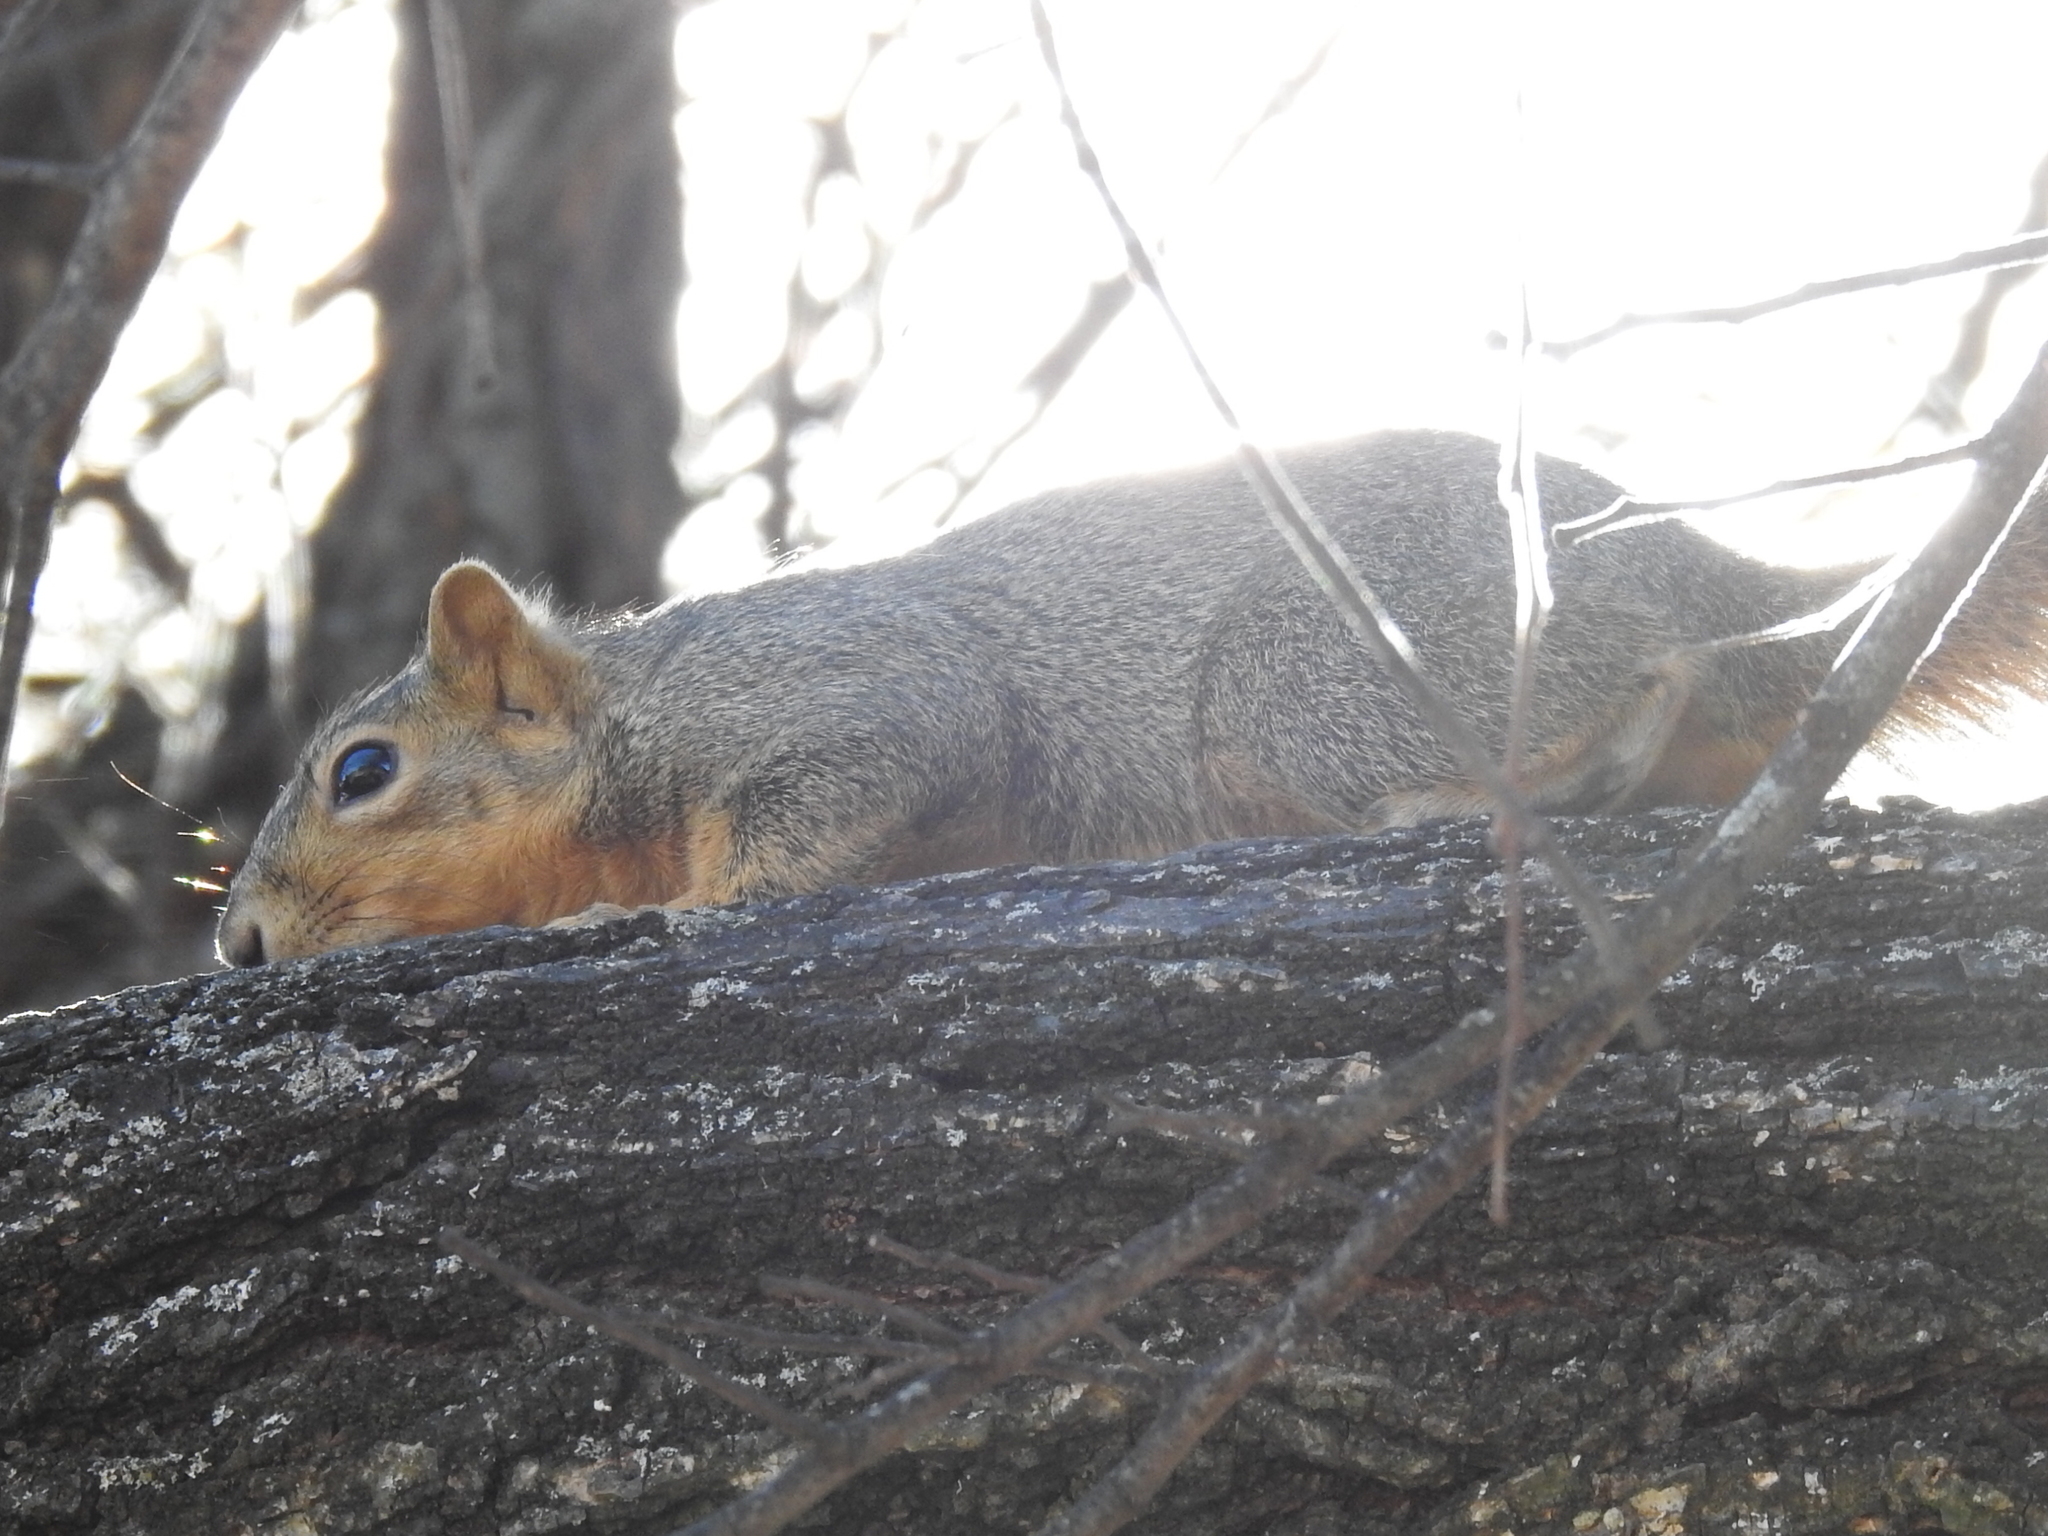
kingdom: Animalia
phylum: Chordata
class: Mammalia
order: Rodentia
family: Sciuridae
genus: Sciurus
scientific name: Sciurus niger
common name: Fox squirrel
